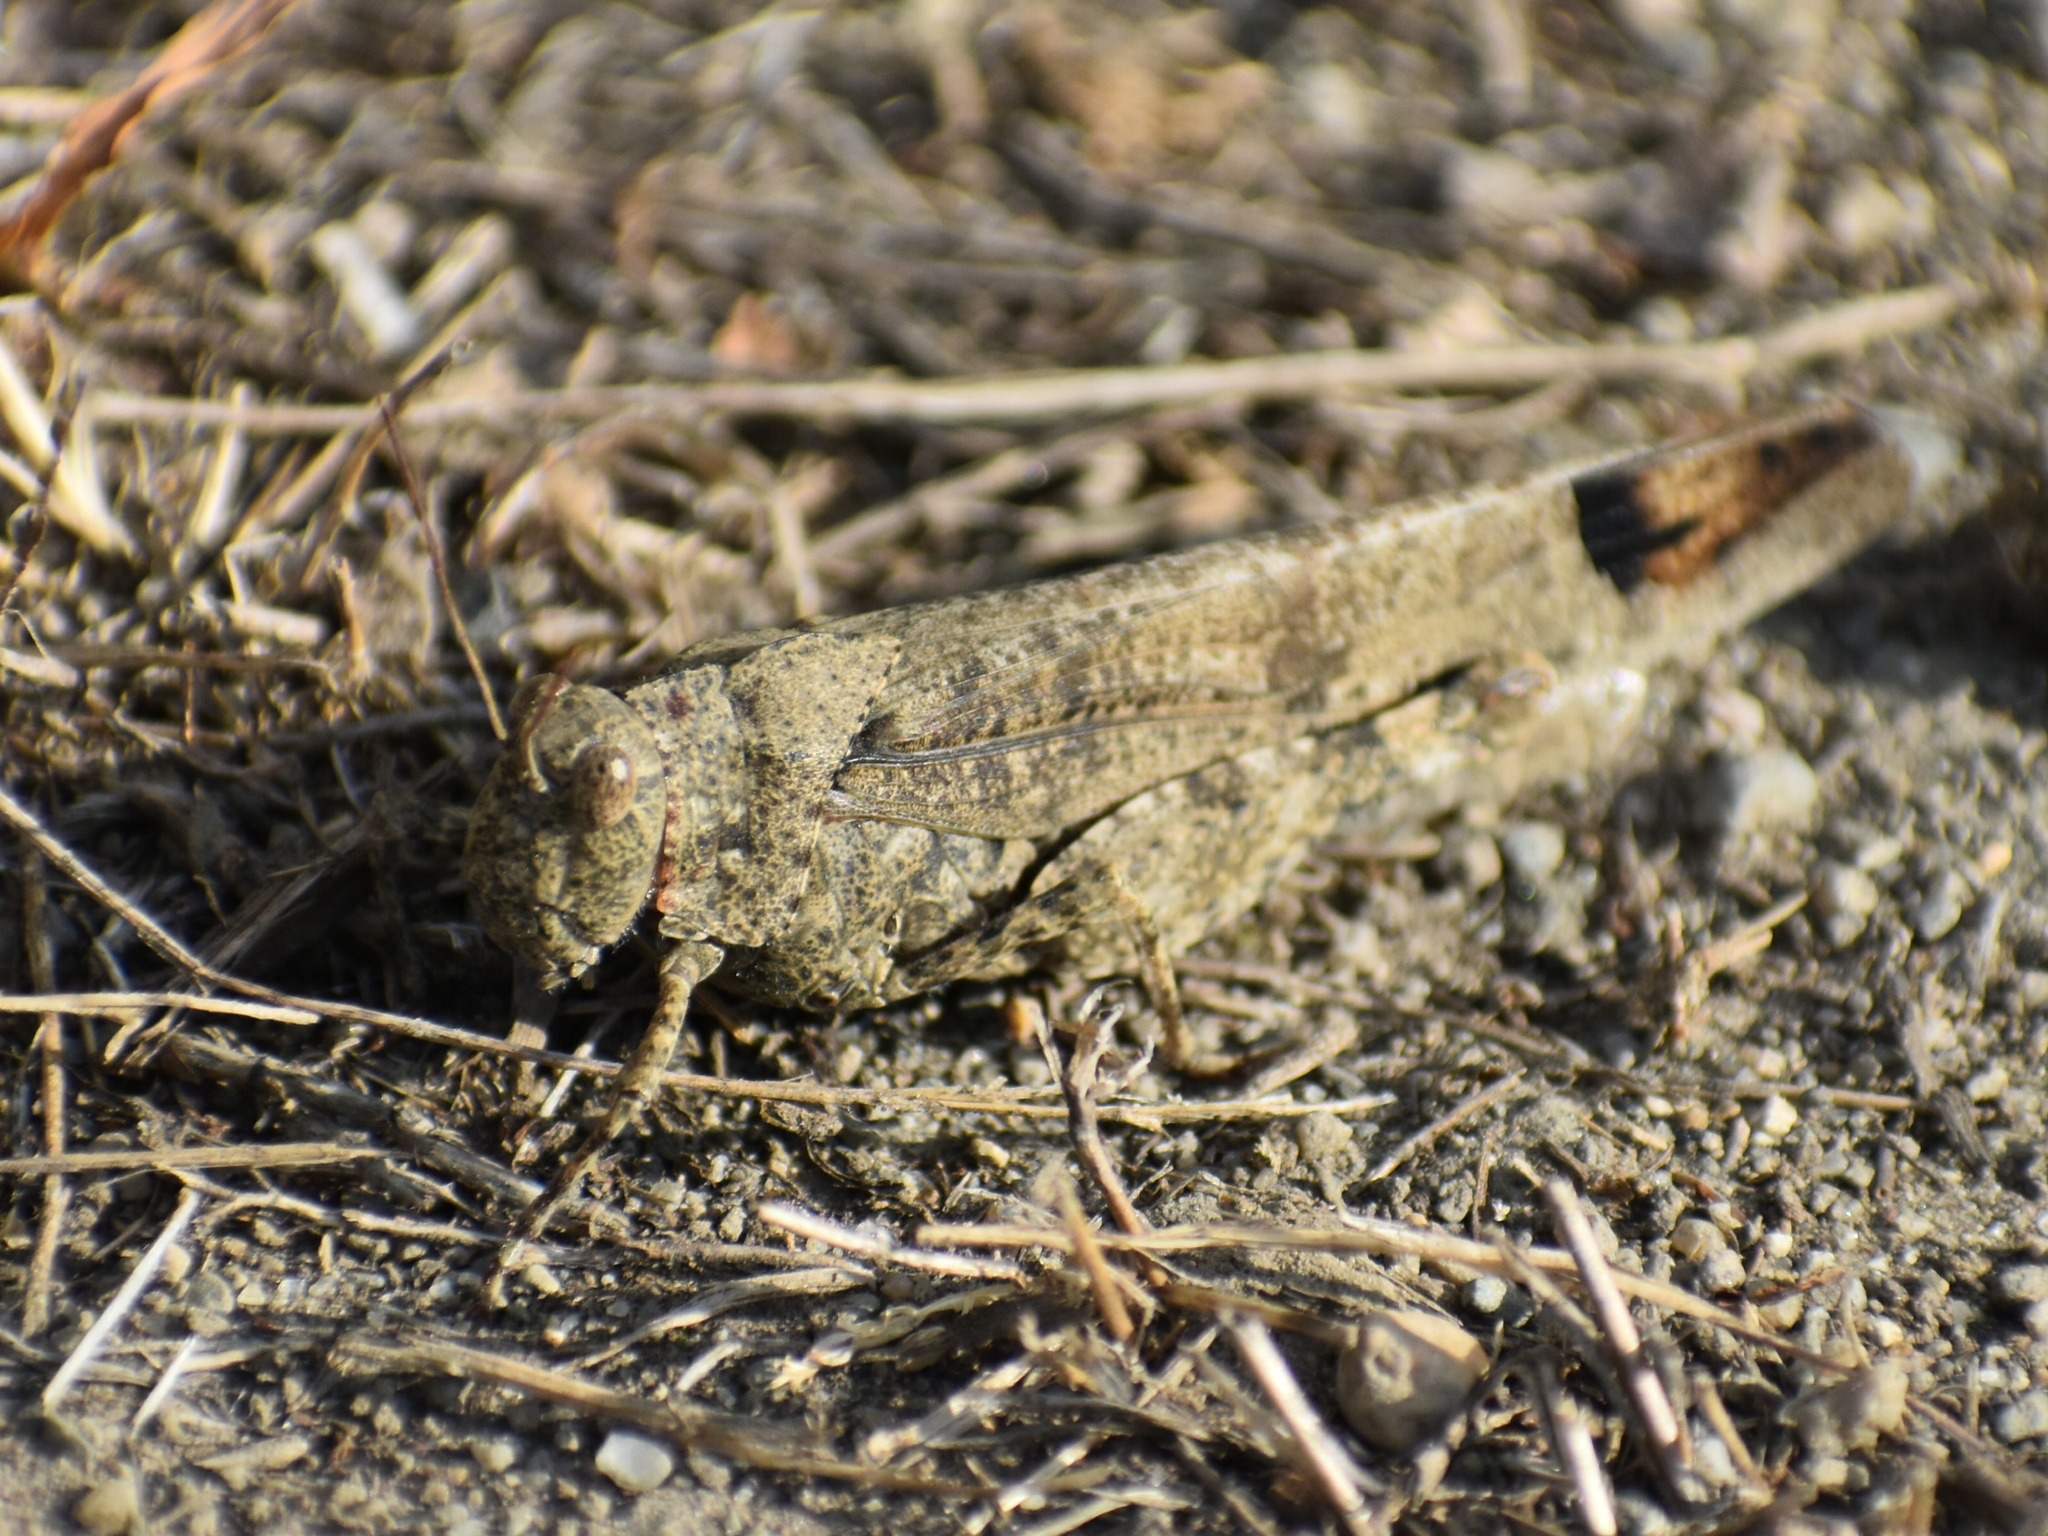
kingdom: Animalia
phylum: Arthropoda
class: Insecta
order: Orthoptera
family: Acrididae
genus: Dissosteira
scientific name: Dissosteira carolina
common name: Carolina grasshopper
